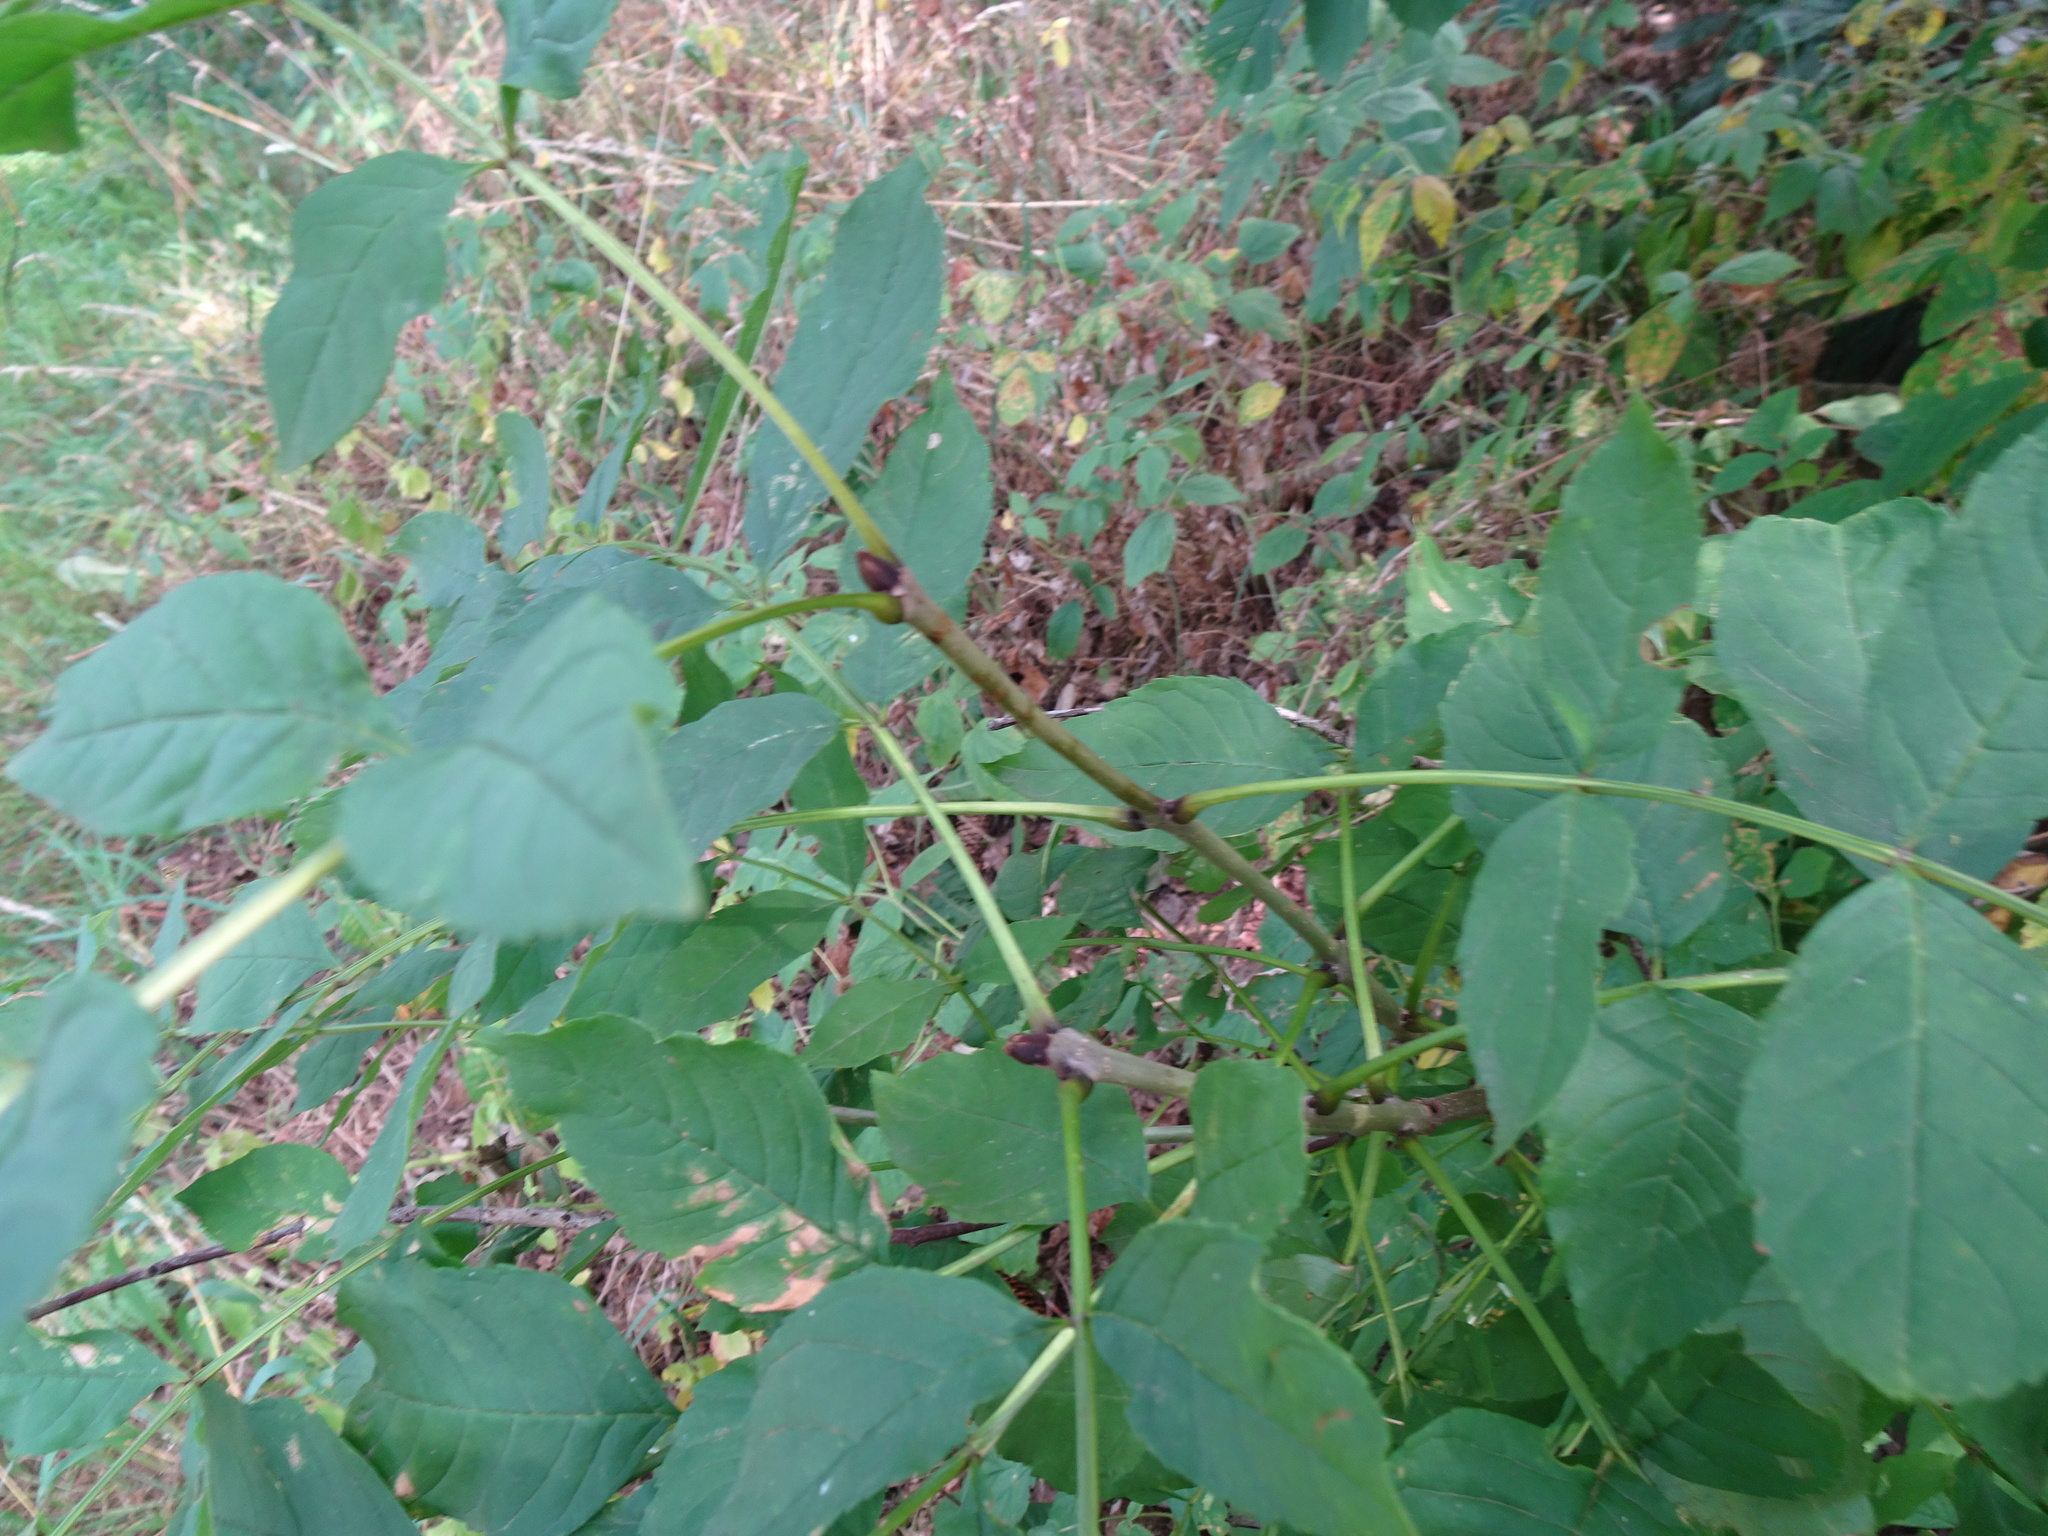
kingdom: Plantae
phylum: Tracheophyta
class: Magnoliopsida
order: Lamiales
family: Oleaceae
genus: Fraxinus
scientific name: Fraxinus excelsior
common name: European ash
